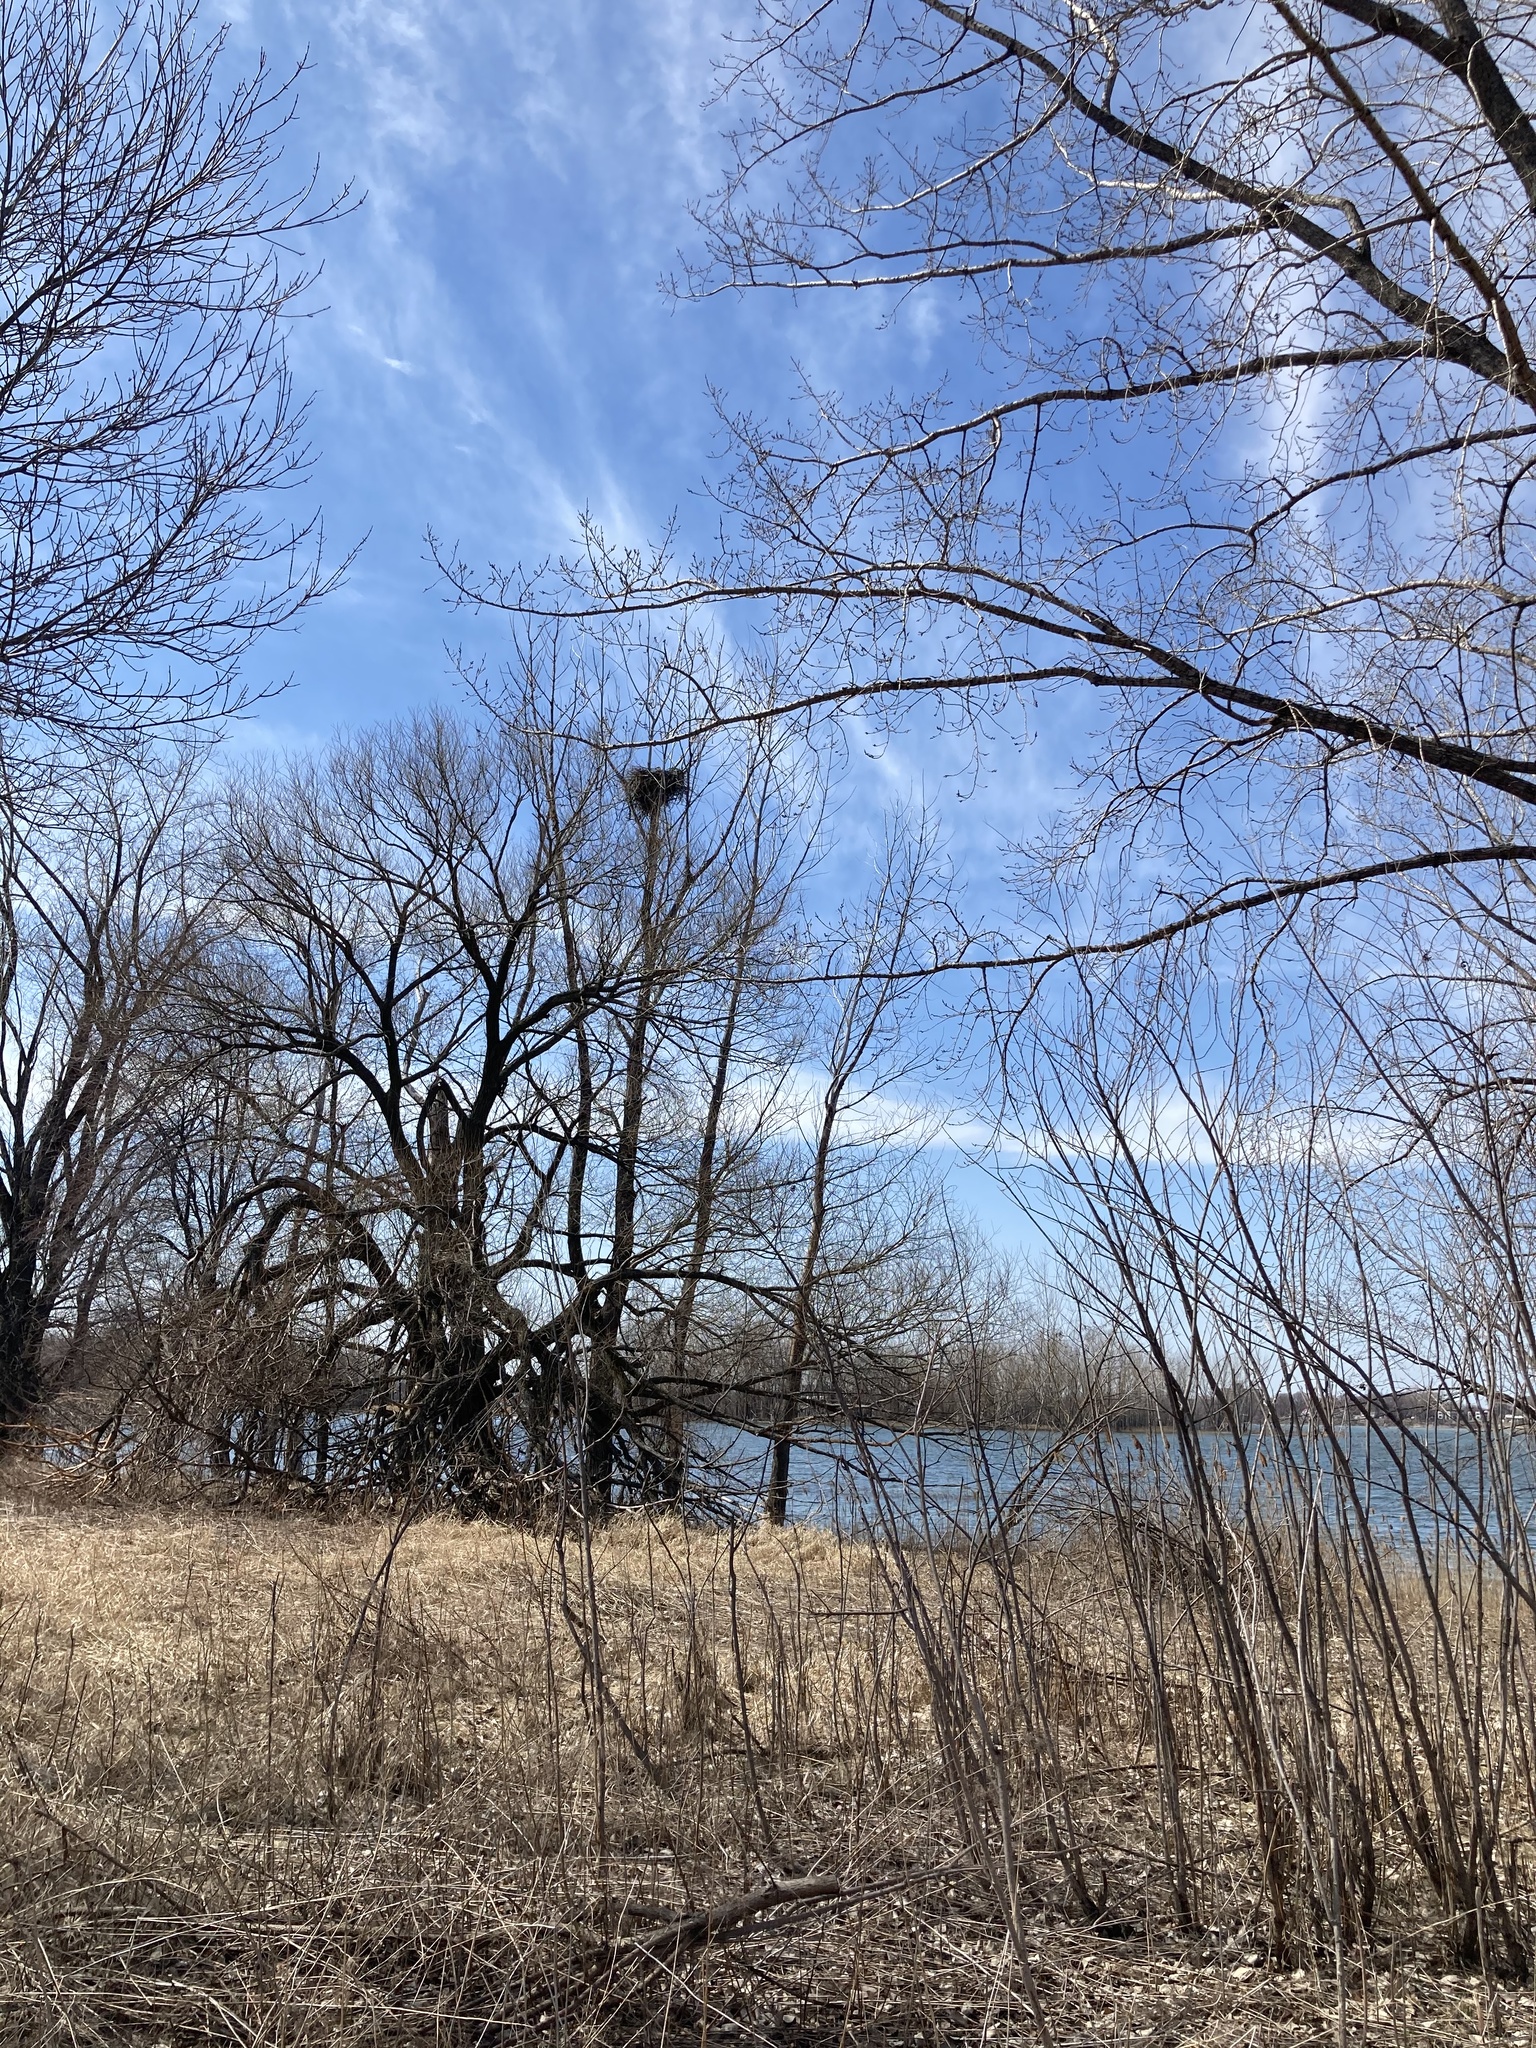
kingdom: Animalia
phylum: Chordata
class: Aves
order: Accipitriformes
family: Accipitridae
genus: Haliaeetus
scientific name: Haliaeetus leucocephalus
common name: Bald eagle
